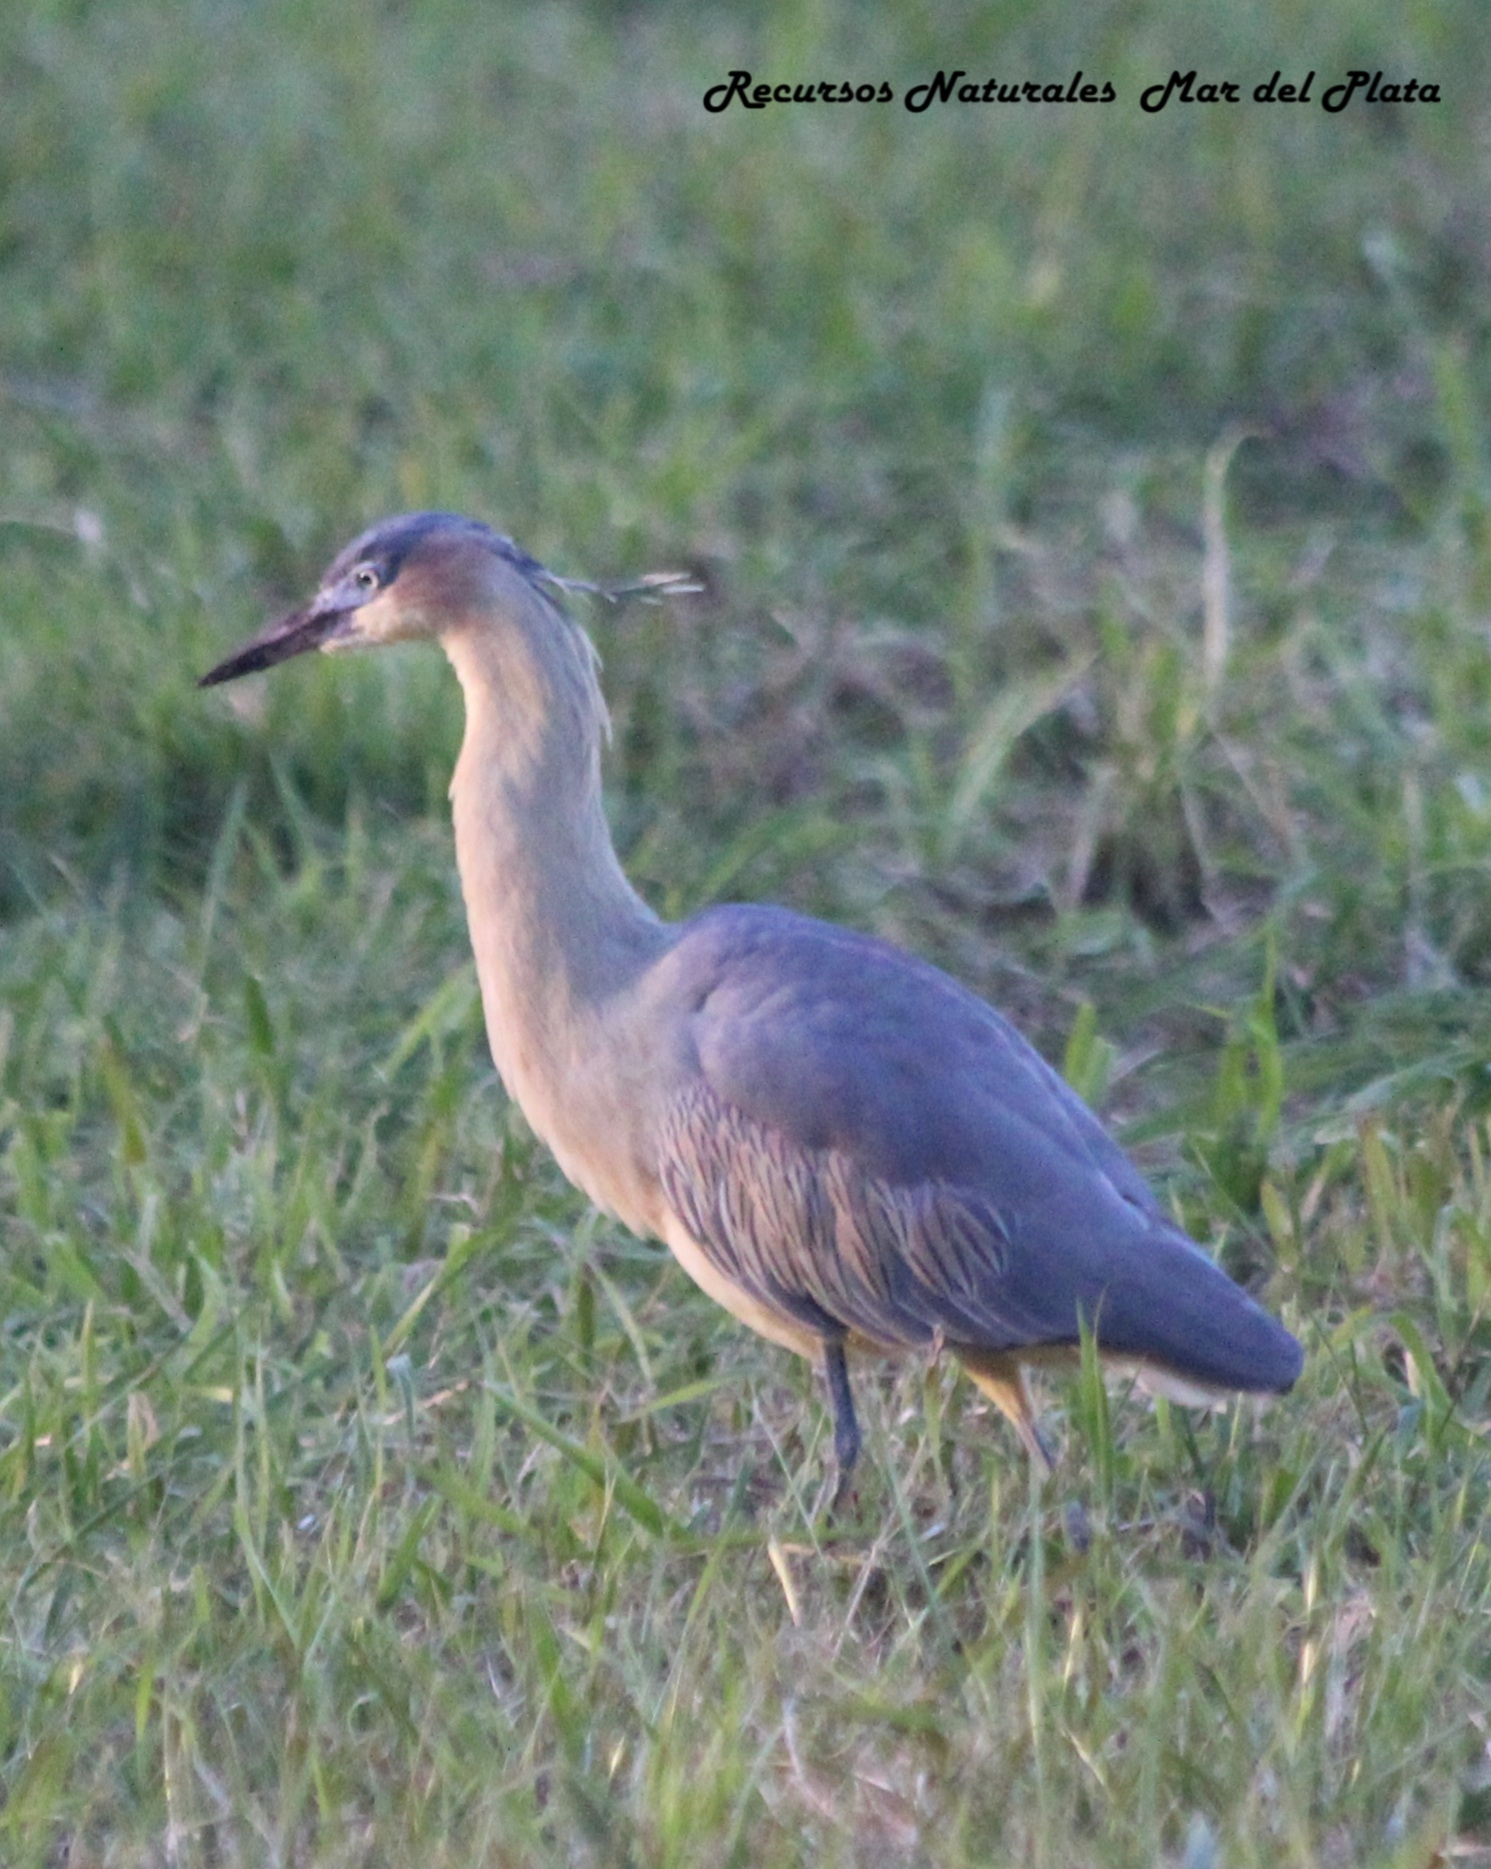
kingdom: Animalia
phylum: Chordata
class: Aves
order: Pelecaniformes
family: Ardeidae
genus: Syrigma
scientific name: Syrigma sibilatrix
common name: Whistling heron
